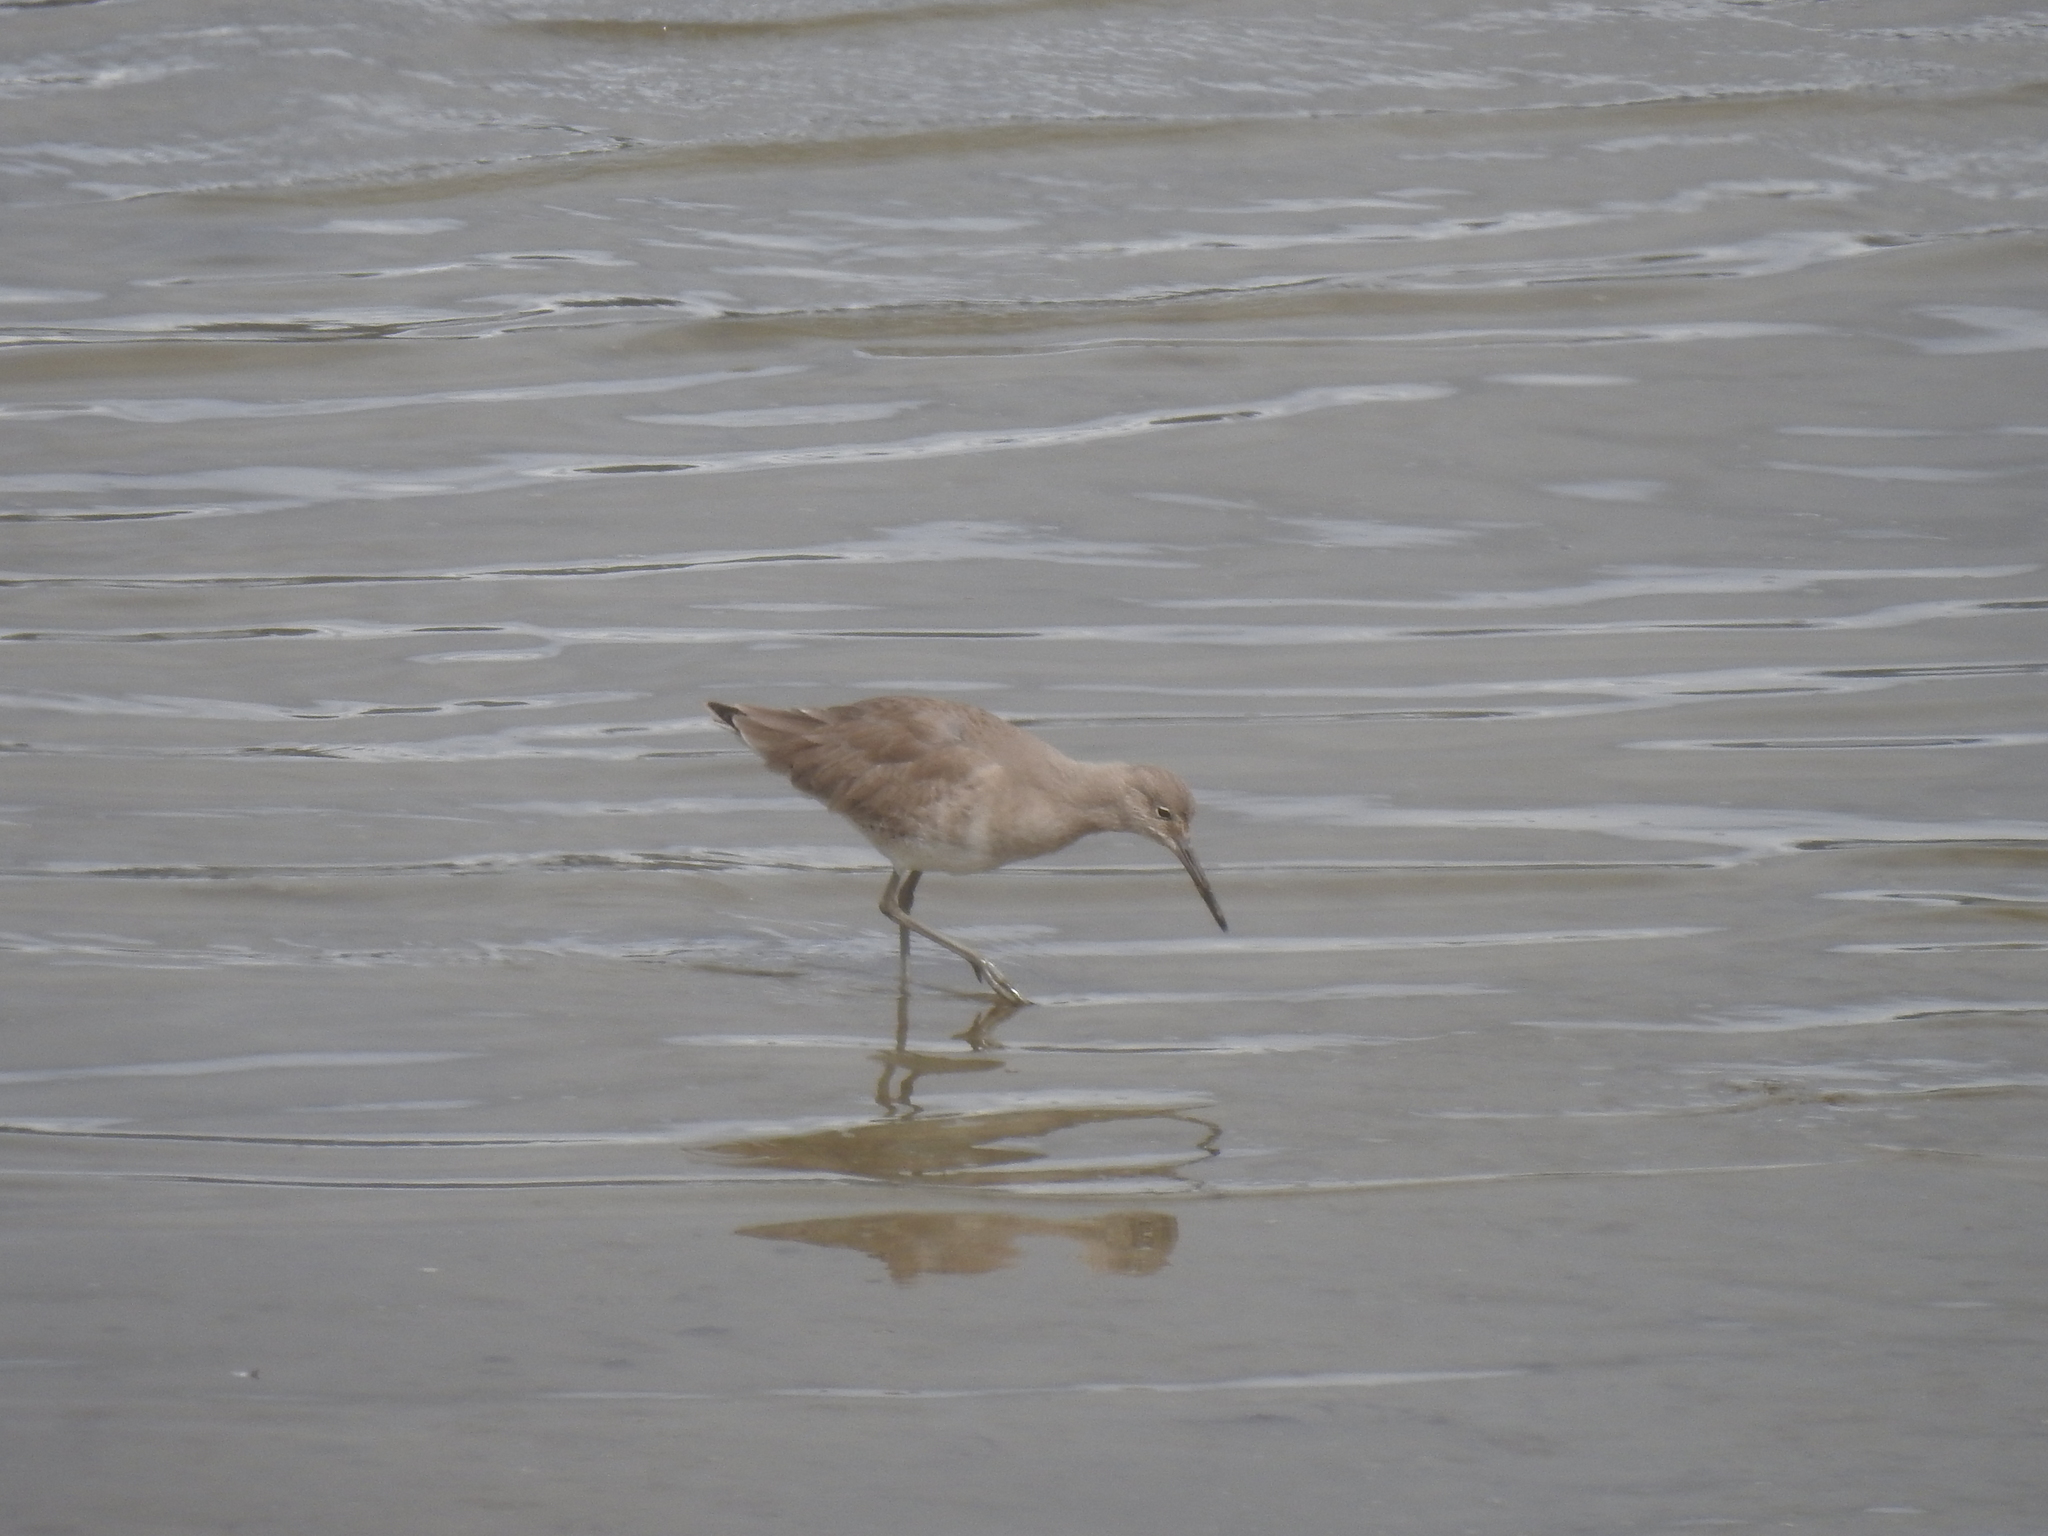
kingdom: Animalia
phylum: Chordata
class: Aves
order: Charadriiformes
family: Scolopacidae
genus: Tringa
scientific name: Tringa semipalmata
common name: Willet
